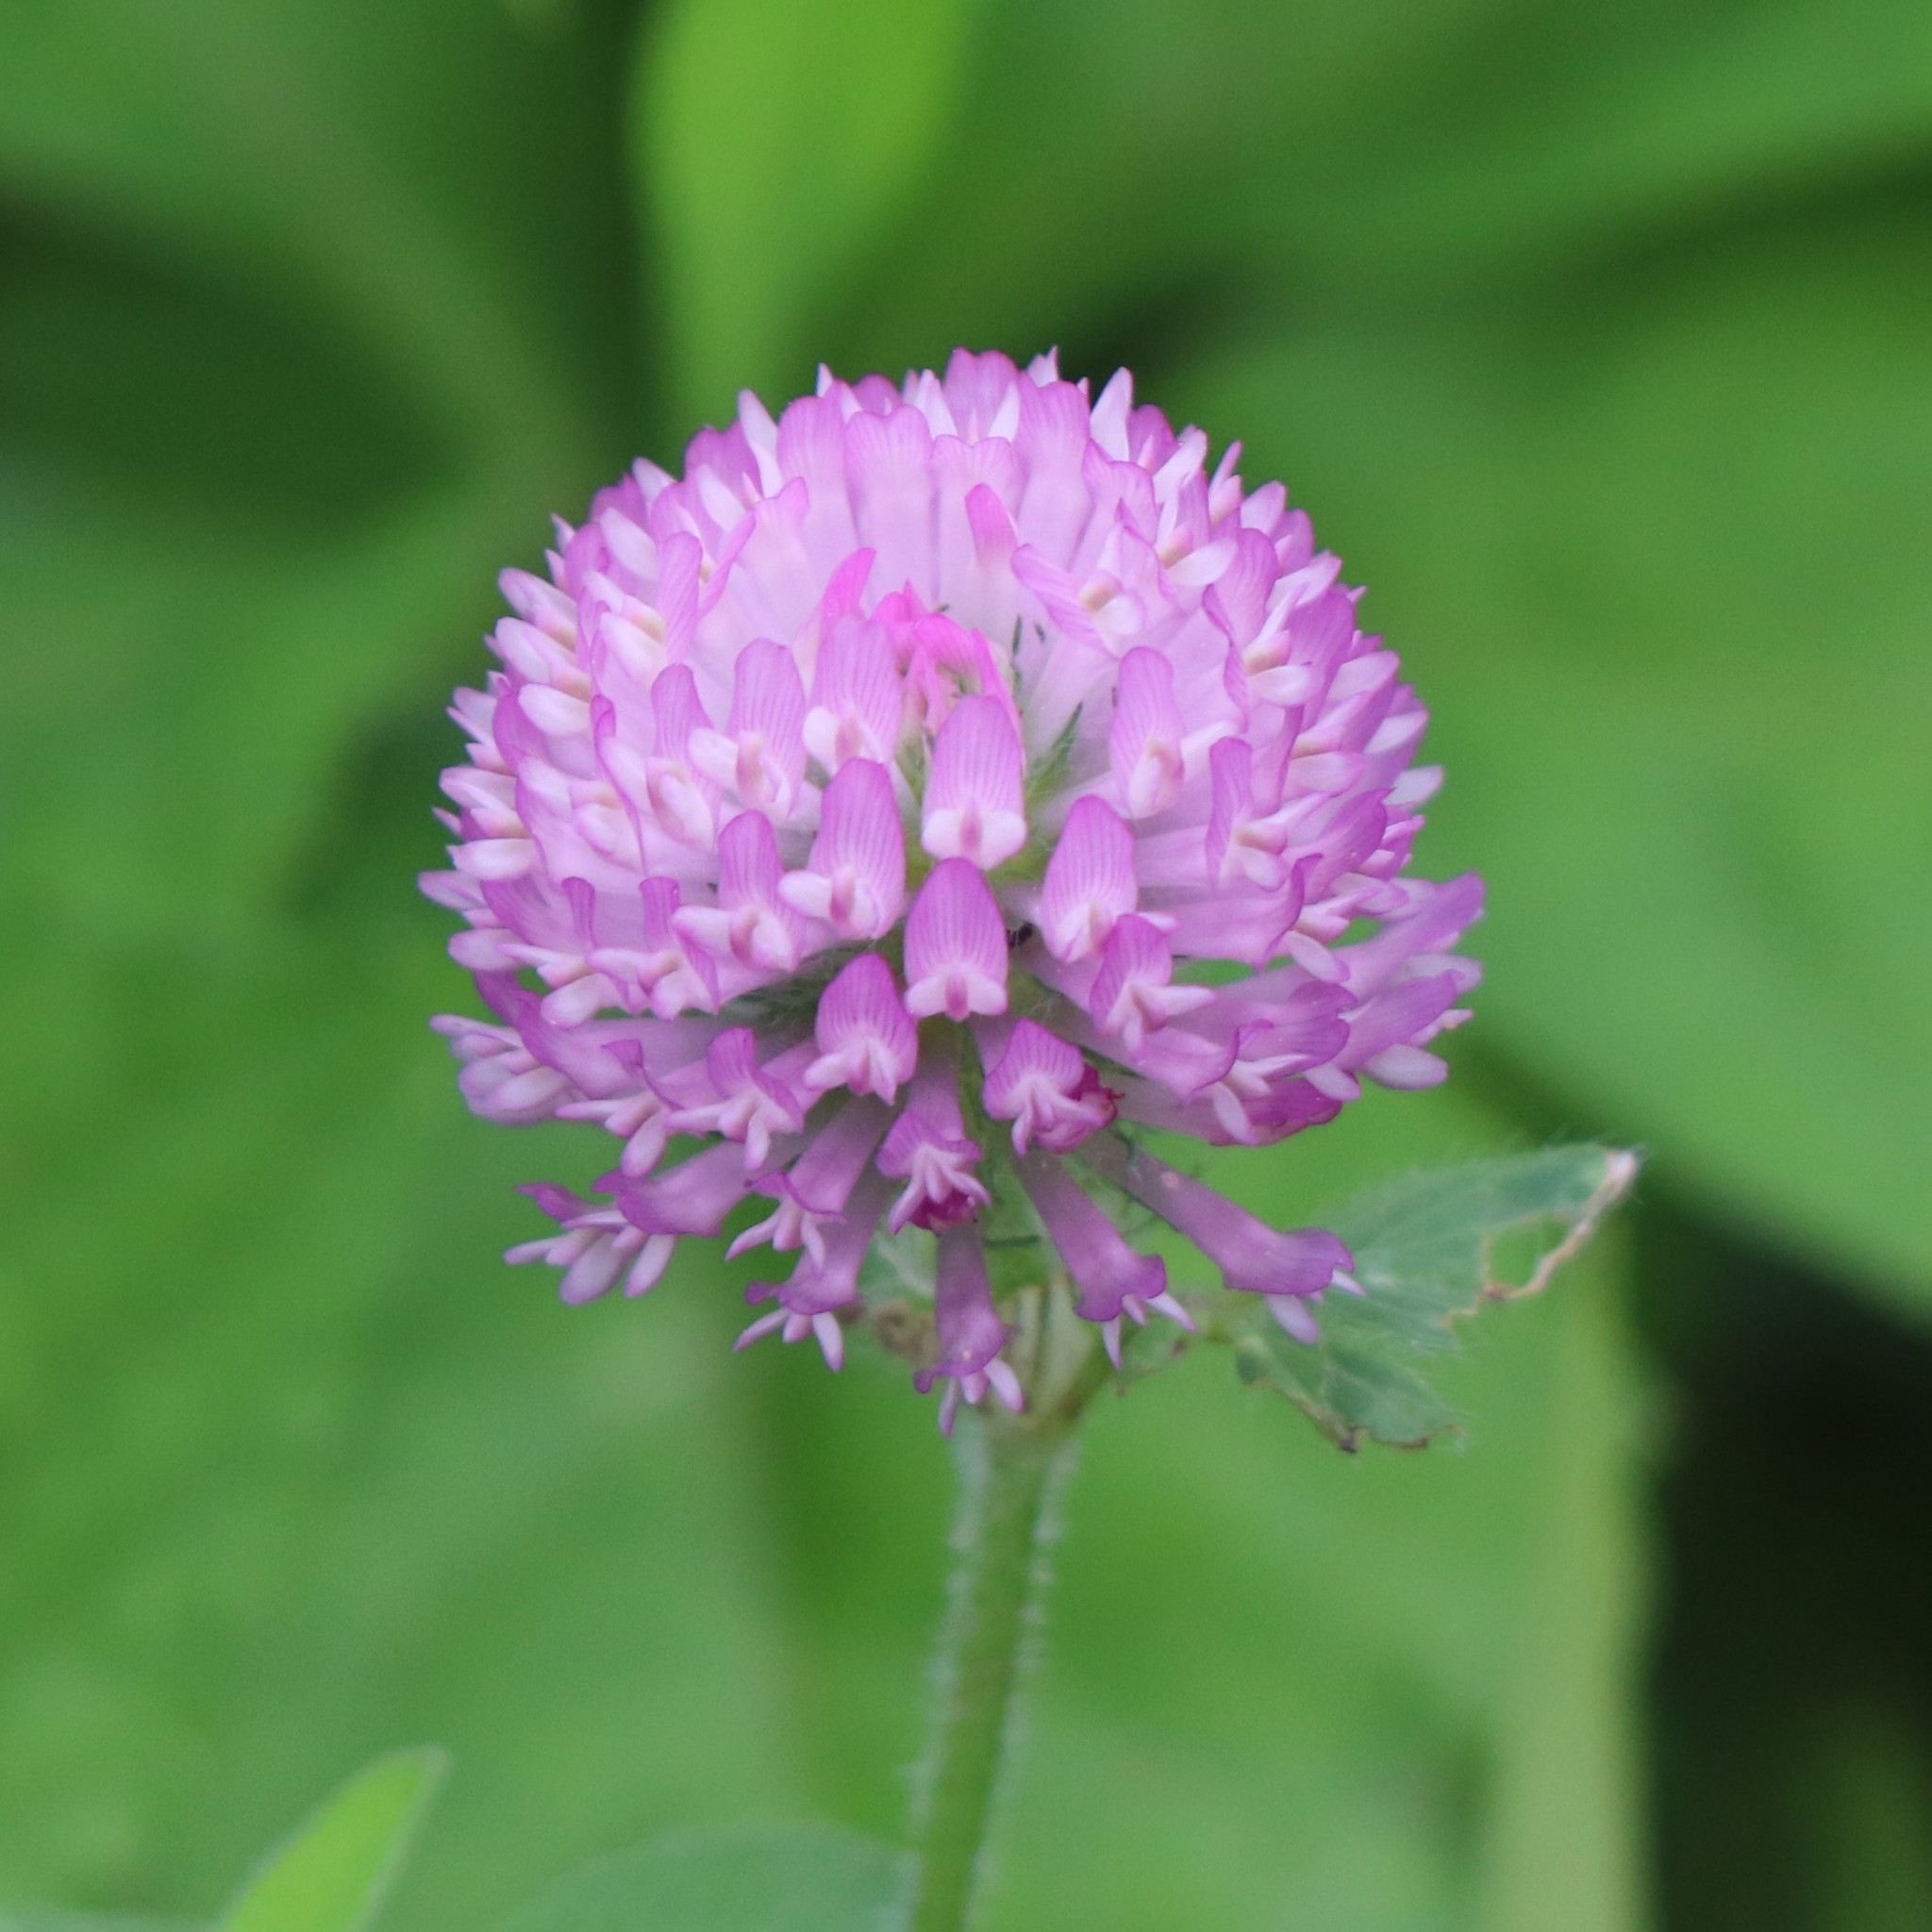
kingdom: Plantae
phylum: Tracheophyta
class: Magnoliopsida
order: Fabales
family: Fabaceae
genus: Trifolium
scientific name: Trifolium pratense
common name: Red clover
